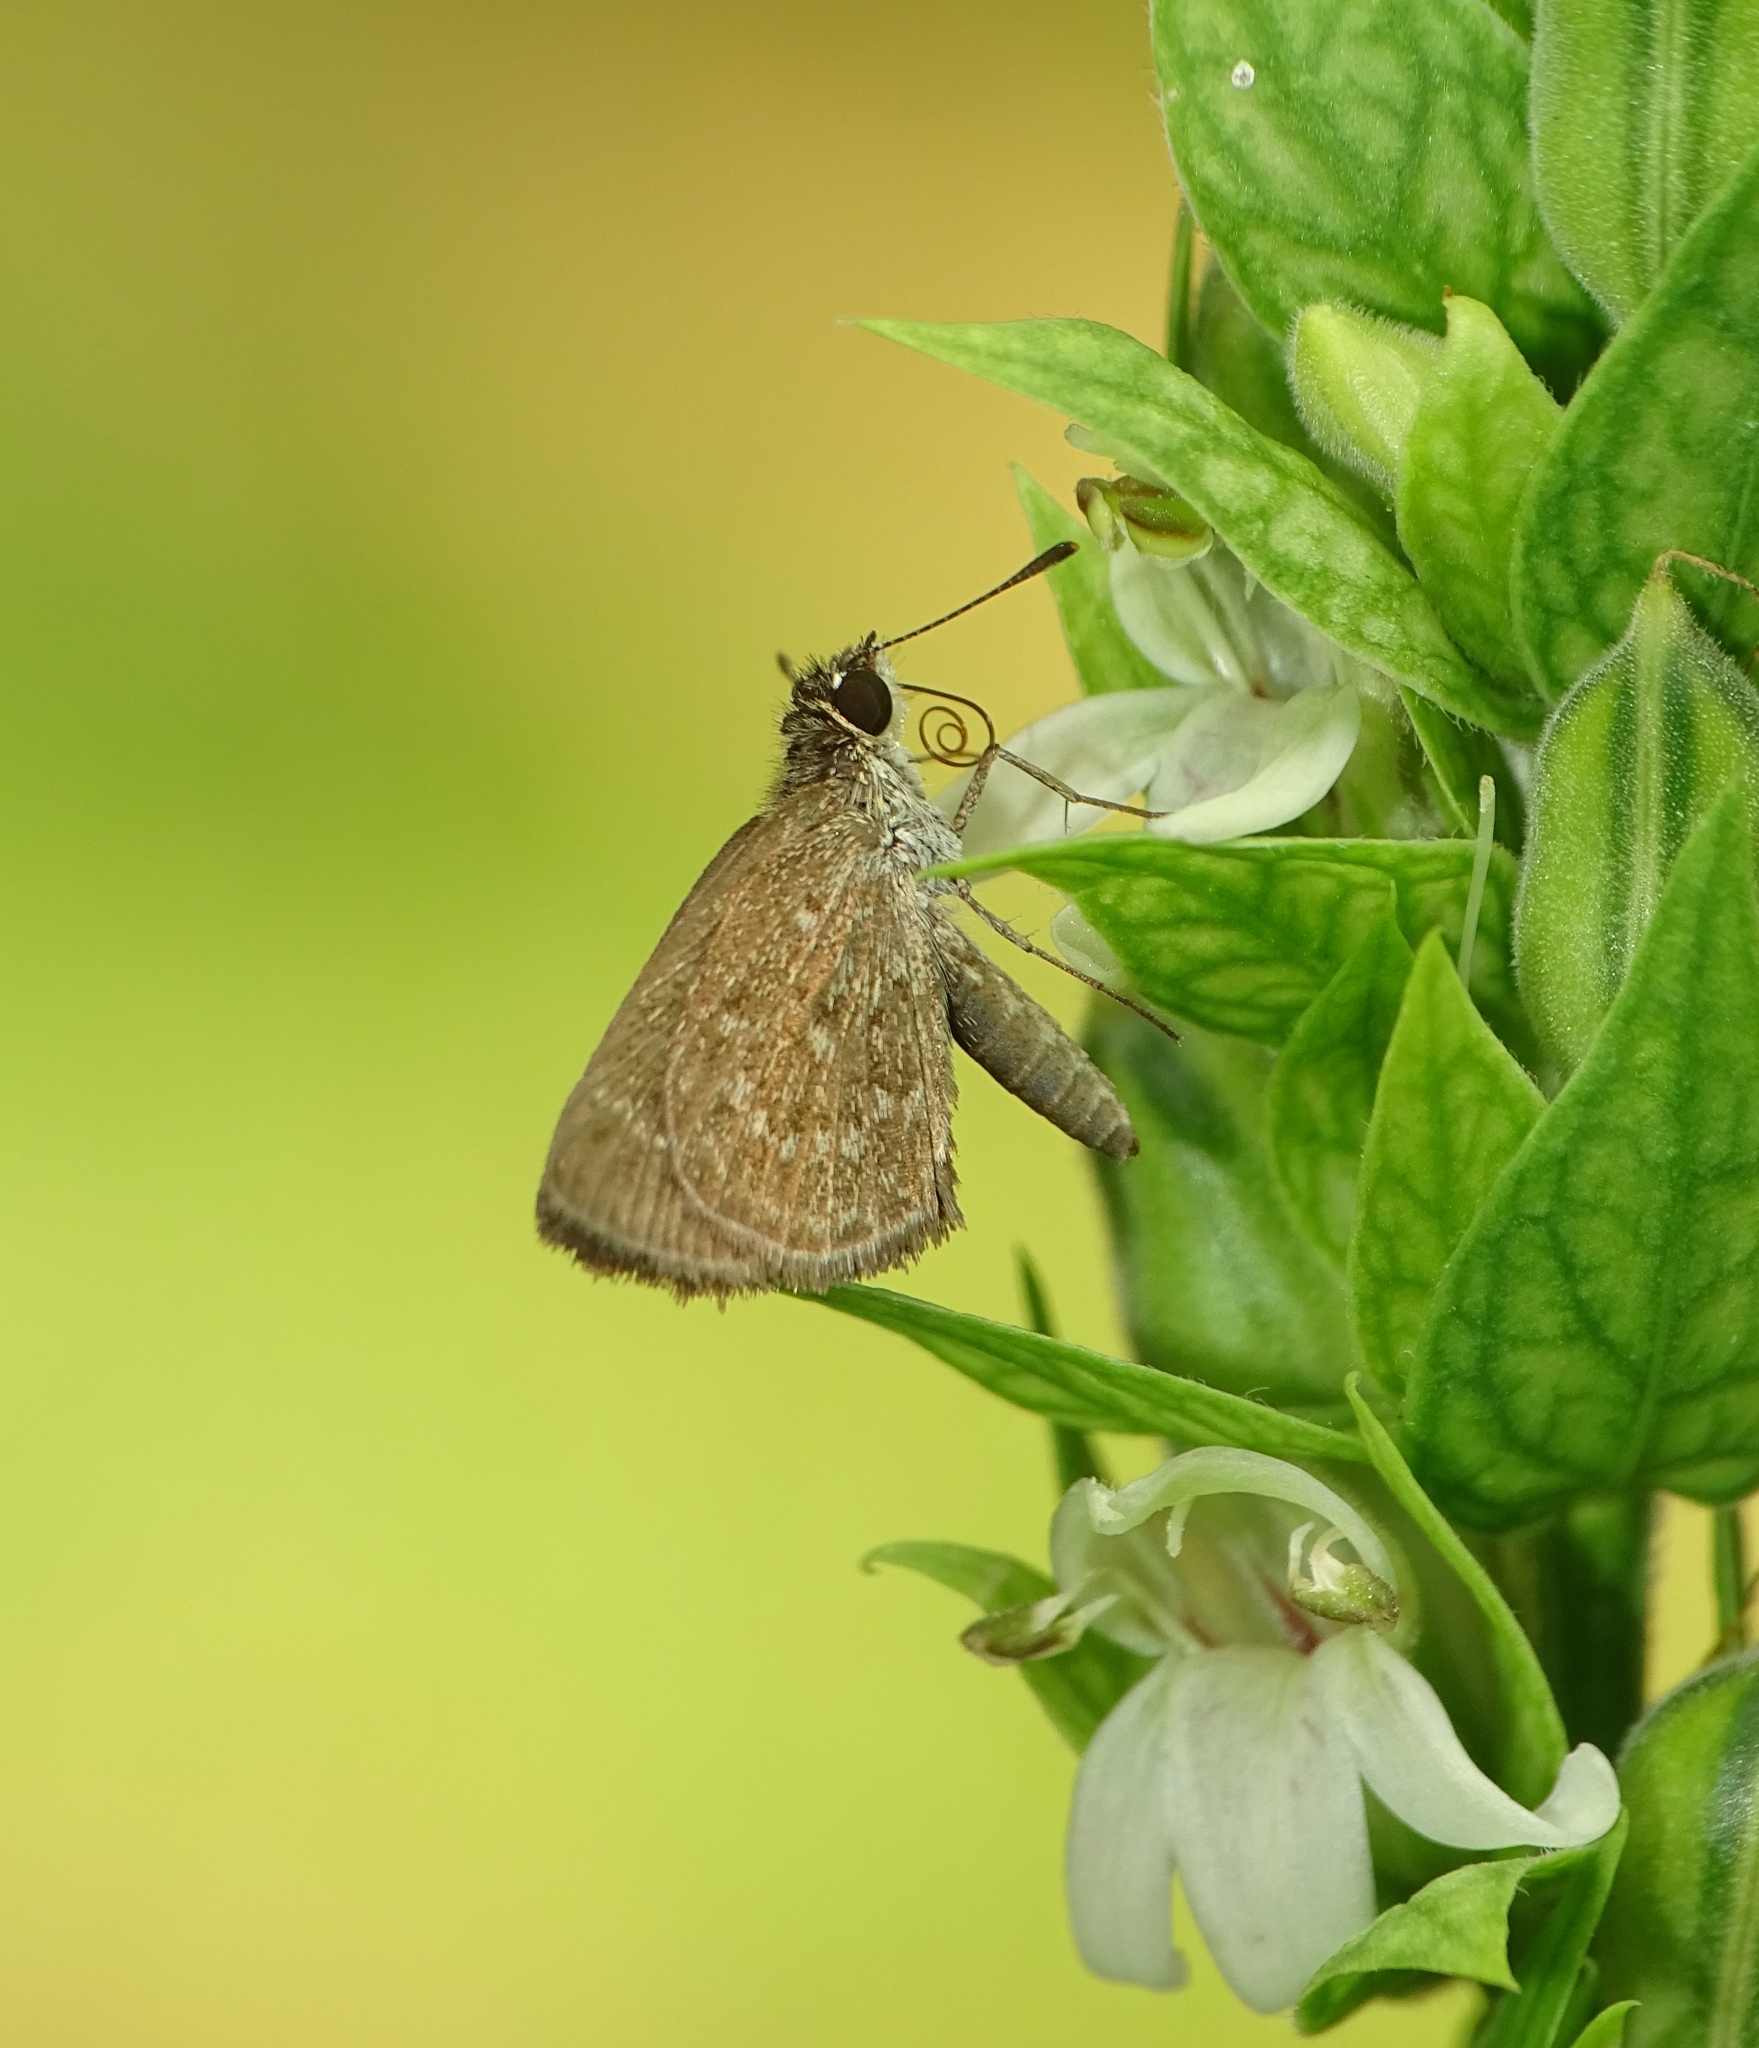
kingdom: Animalia
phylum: Arthropoda
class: Insecta
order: Lepidoptera
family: Hesperiidae
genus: Aeromachus
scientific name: Aeromachus pygmaeus
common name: Pygmy scrub hopper
